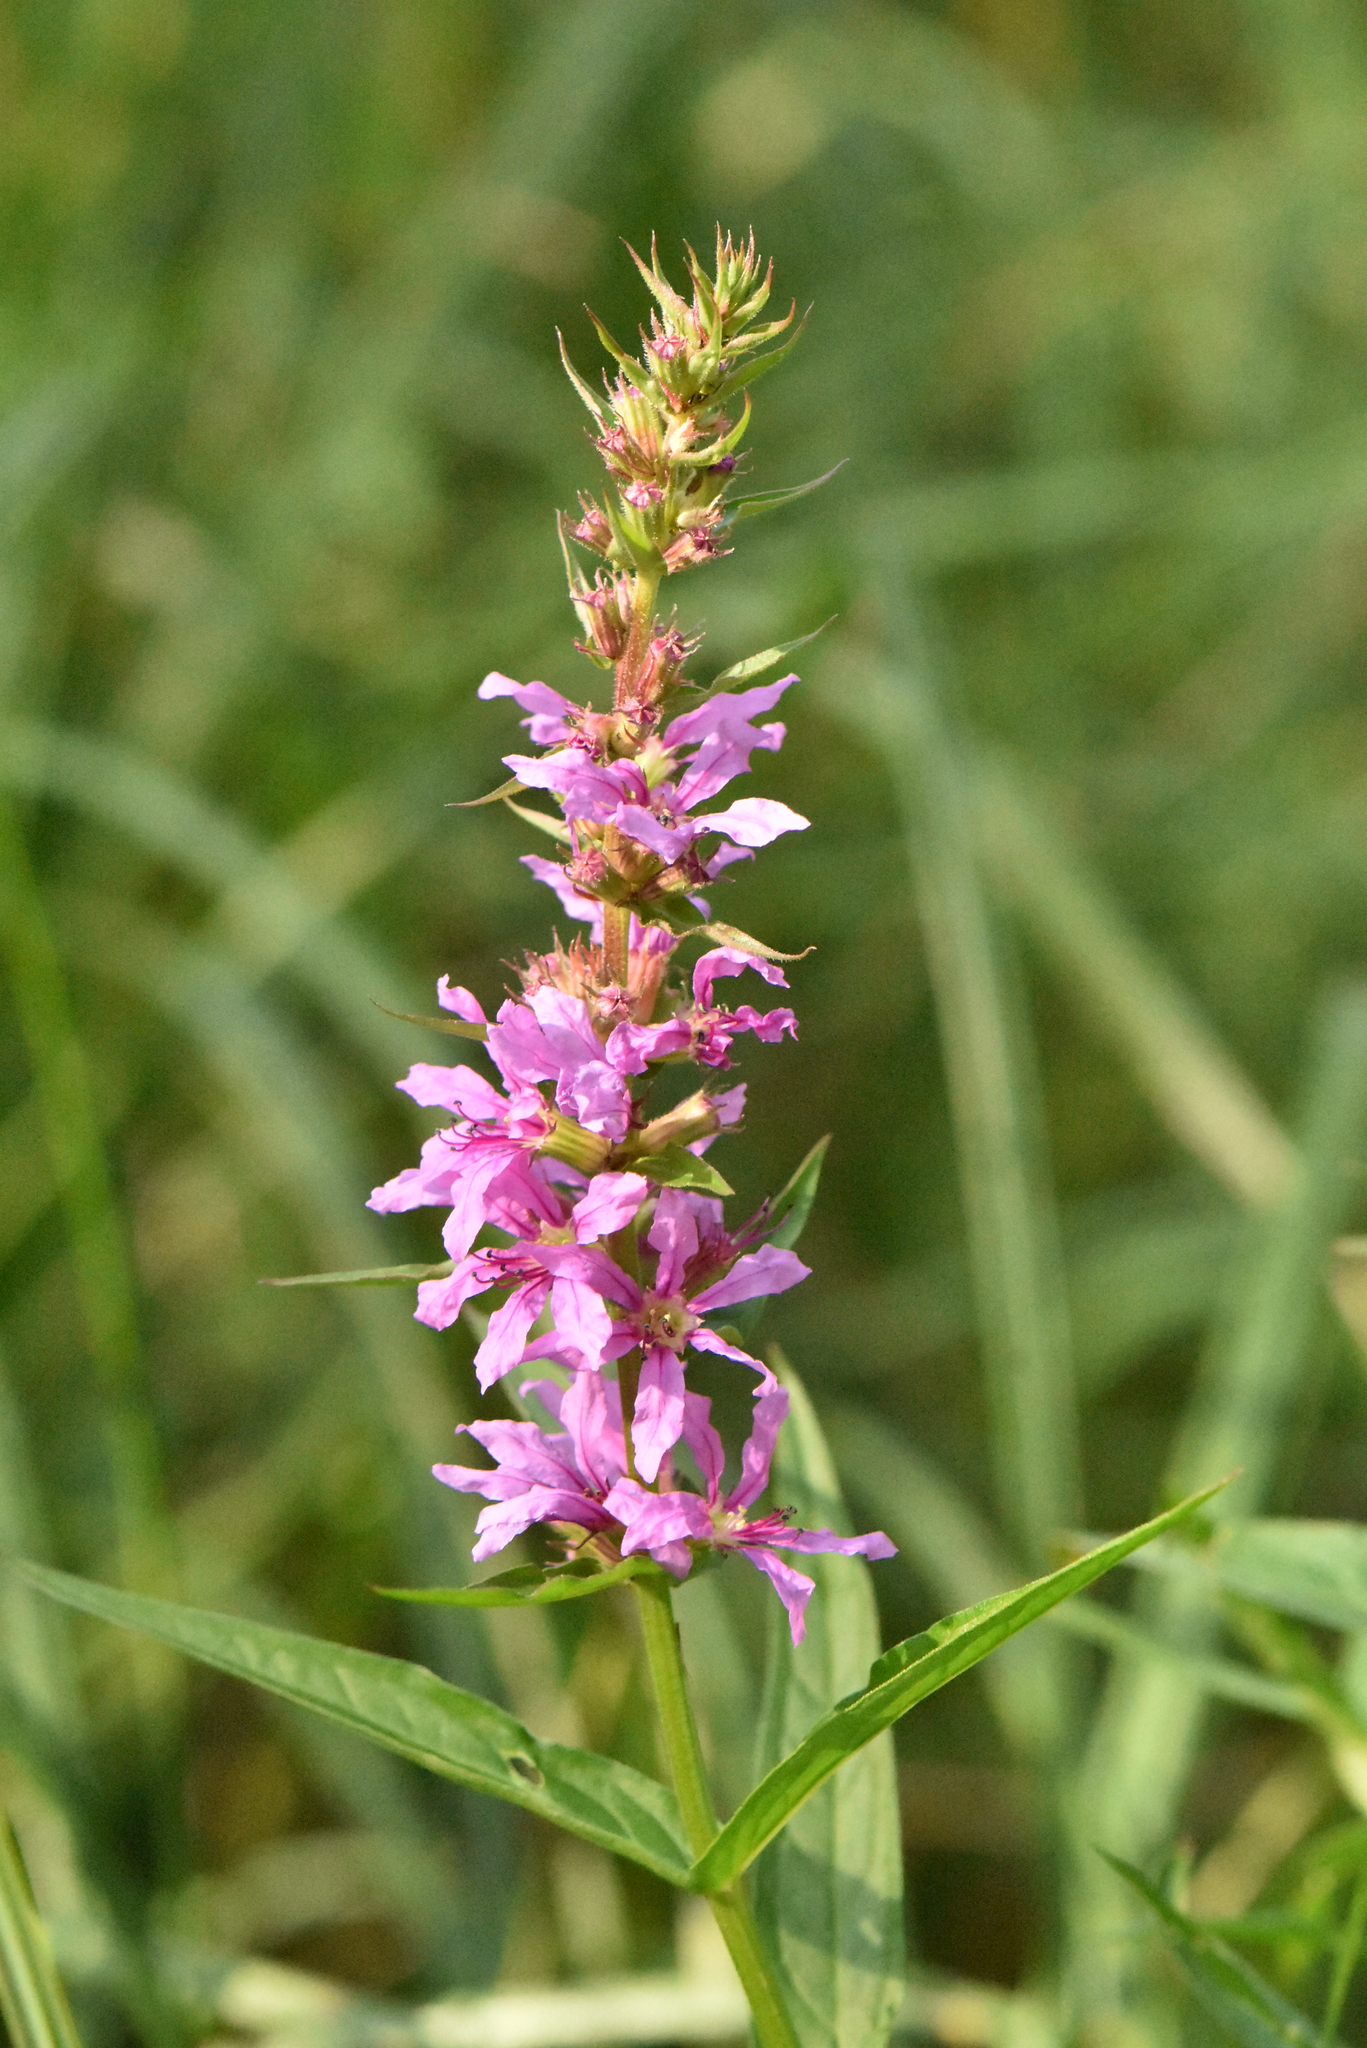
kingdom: Plantae
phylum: Tracheophyta
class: Magnoliopsida
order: Myrtales
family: Lythraceae
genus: Lythrum
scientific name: Lythrum salicaria
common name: Purple loosestrife
